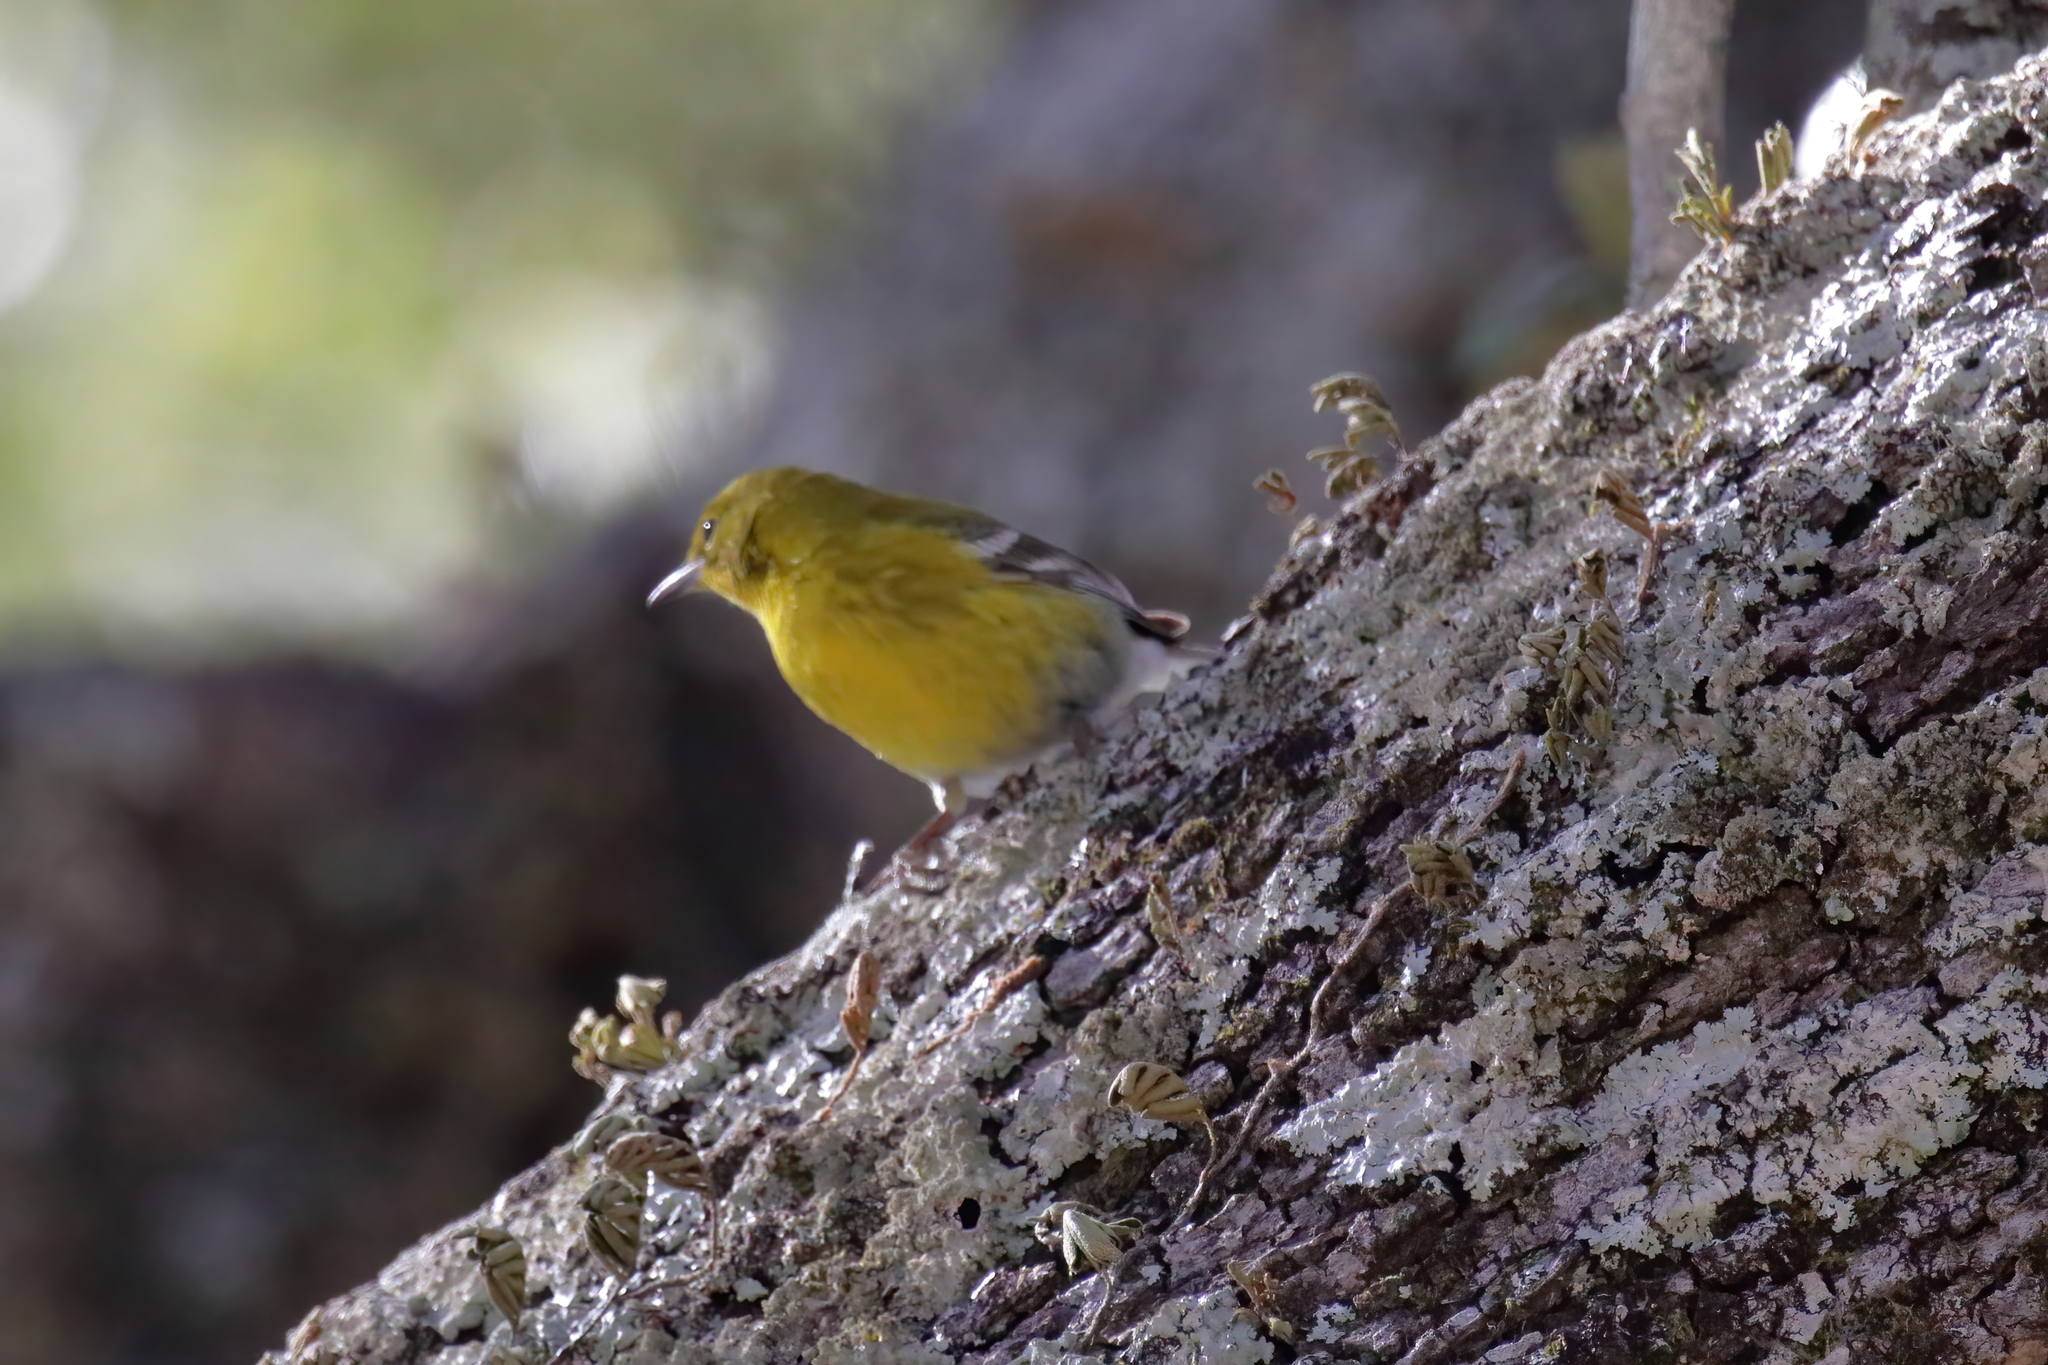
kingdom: Animalia
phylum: Chordata
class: Aves
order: Passeriformes
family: Parulidae
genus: Setophaga
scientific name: Setophaga pinus
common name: Pine warbler
